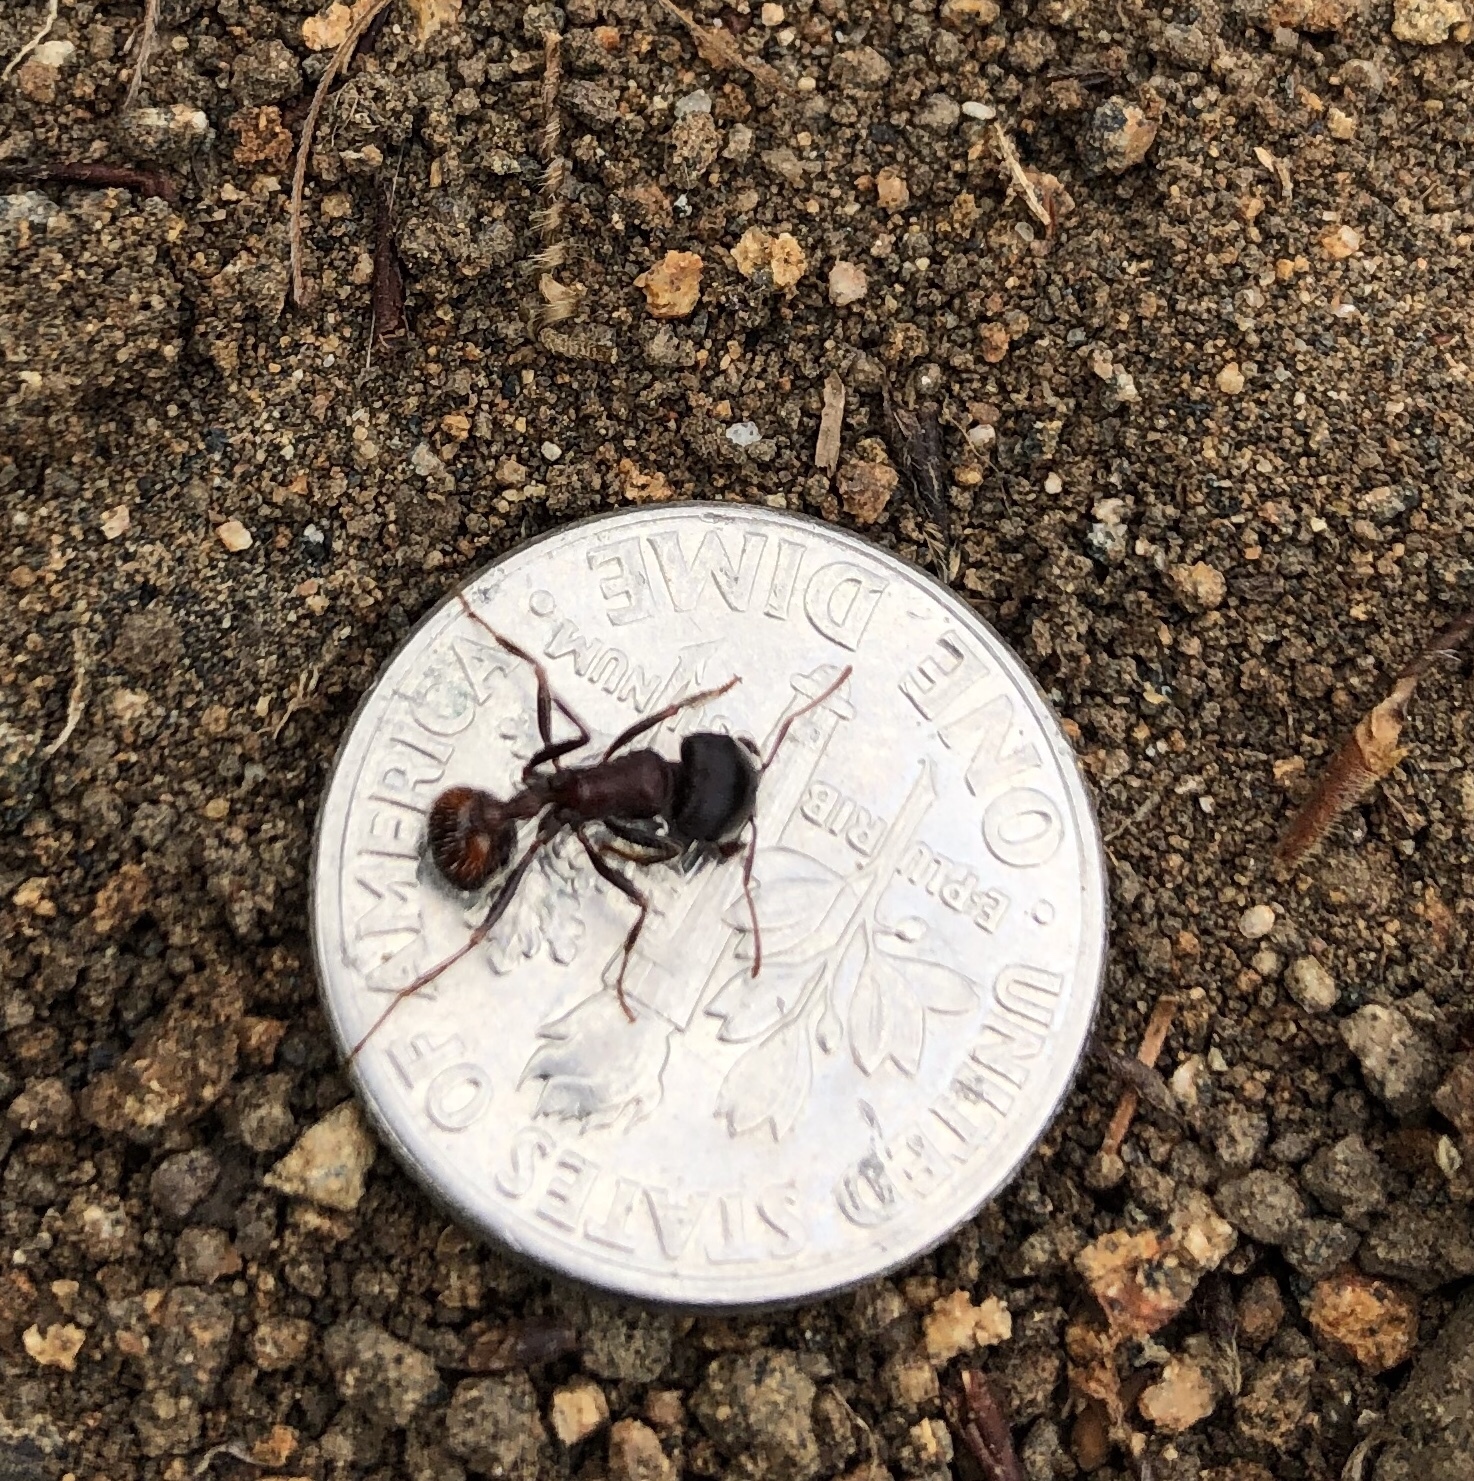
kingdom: Animalia
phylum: Arthropoda
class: Insecta
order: Hymenoptera
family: Formicidae
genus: Pogonomyrmex
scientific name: Pogonomyrmex rugosus
